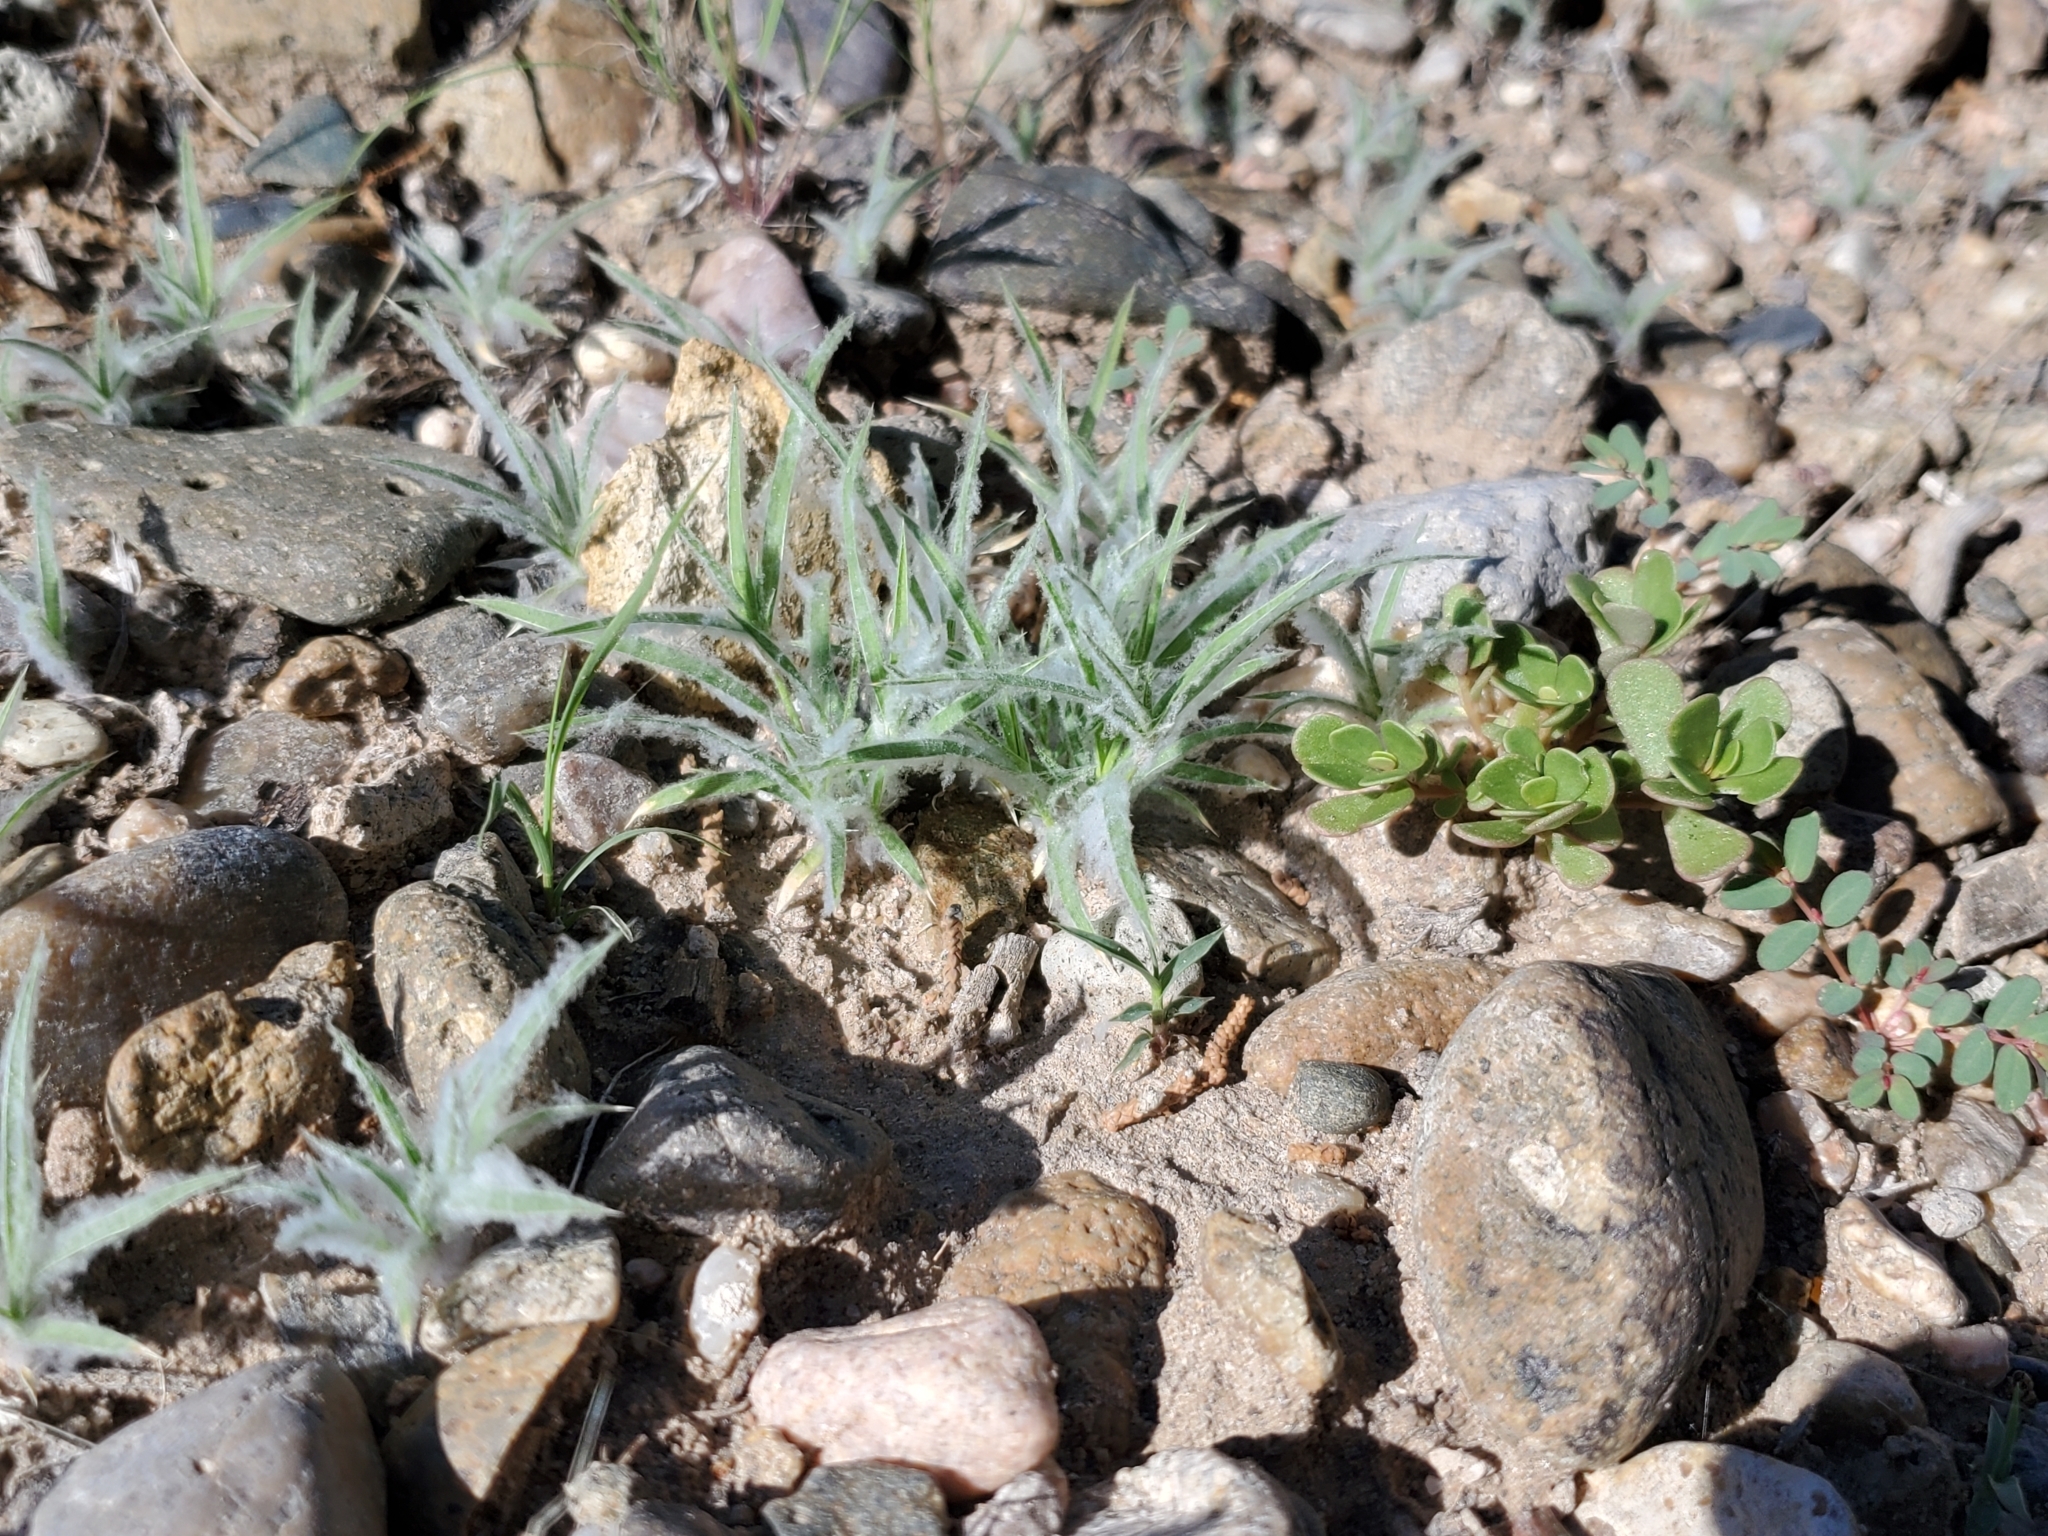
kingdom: Plantae
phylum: Tracheophyta
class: Liliopsida
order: Poales
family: Poaceae
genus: Munroa
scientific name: Munroa squarrosa
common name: False buffalo grass
